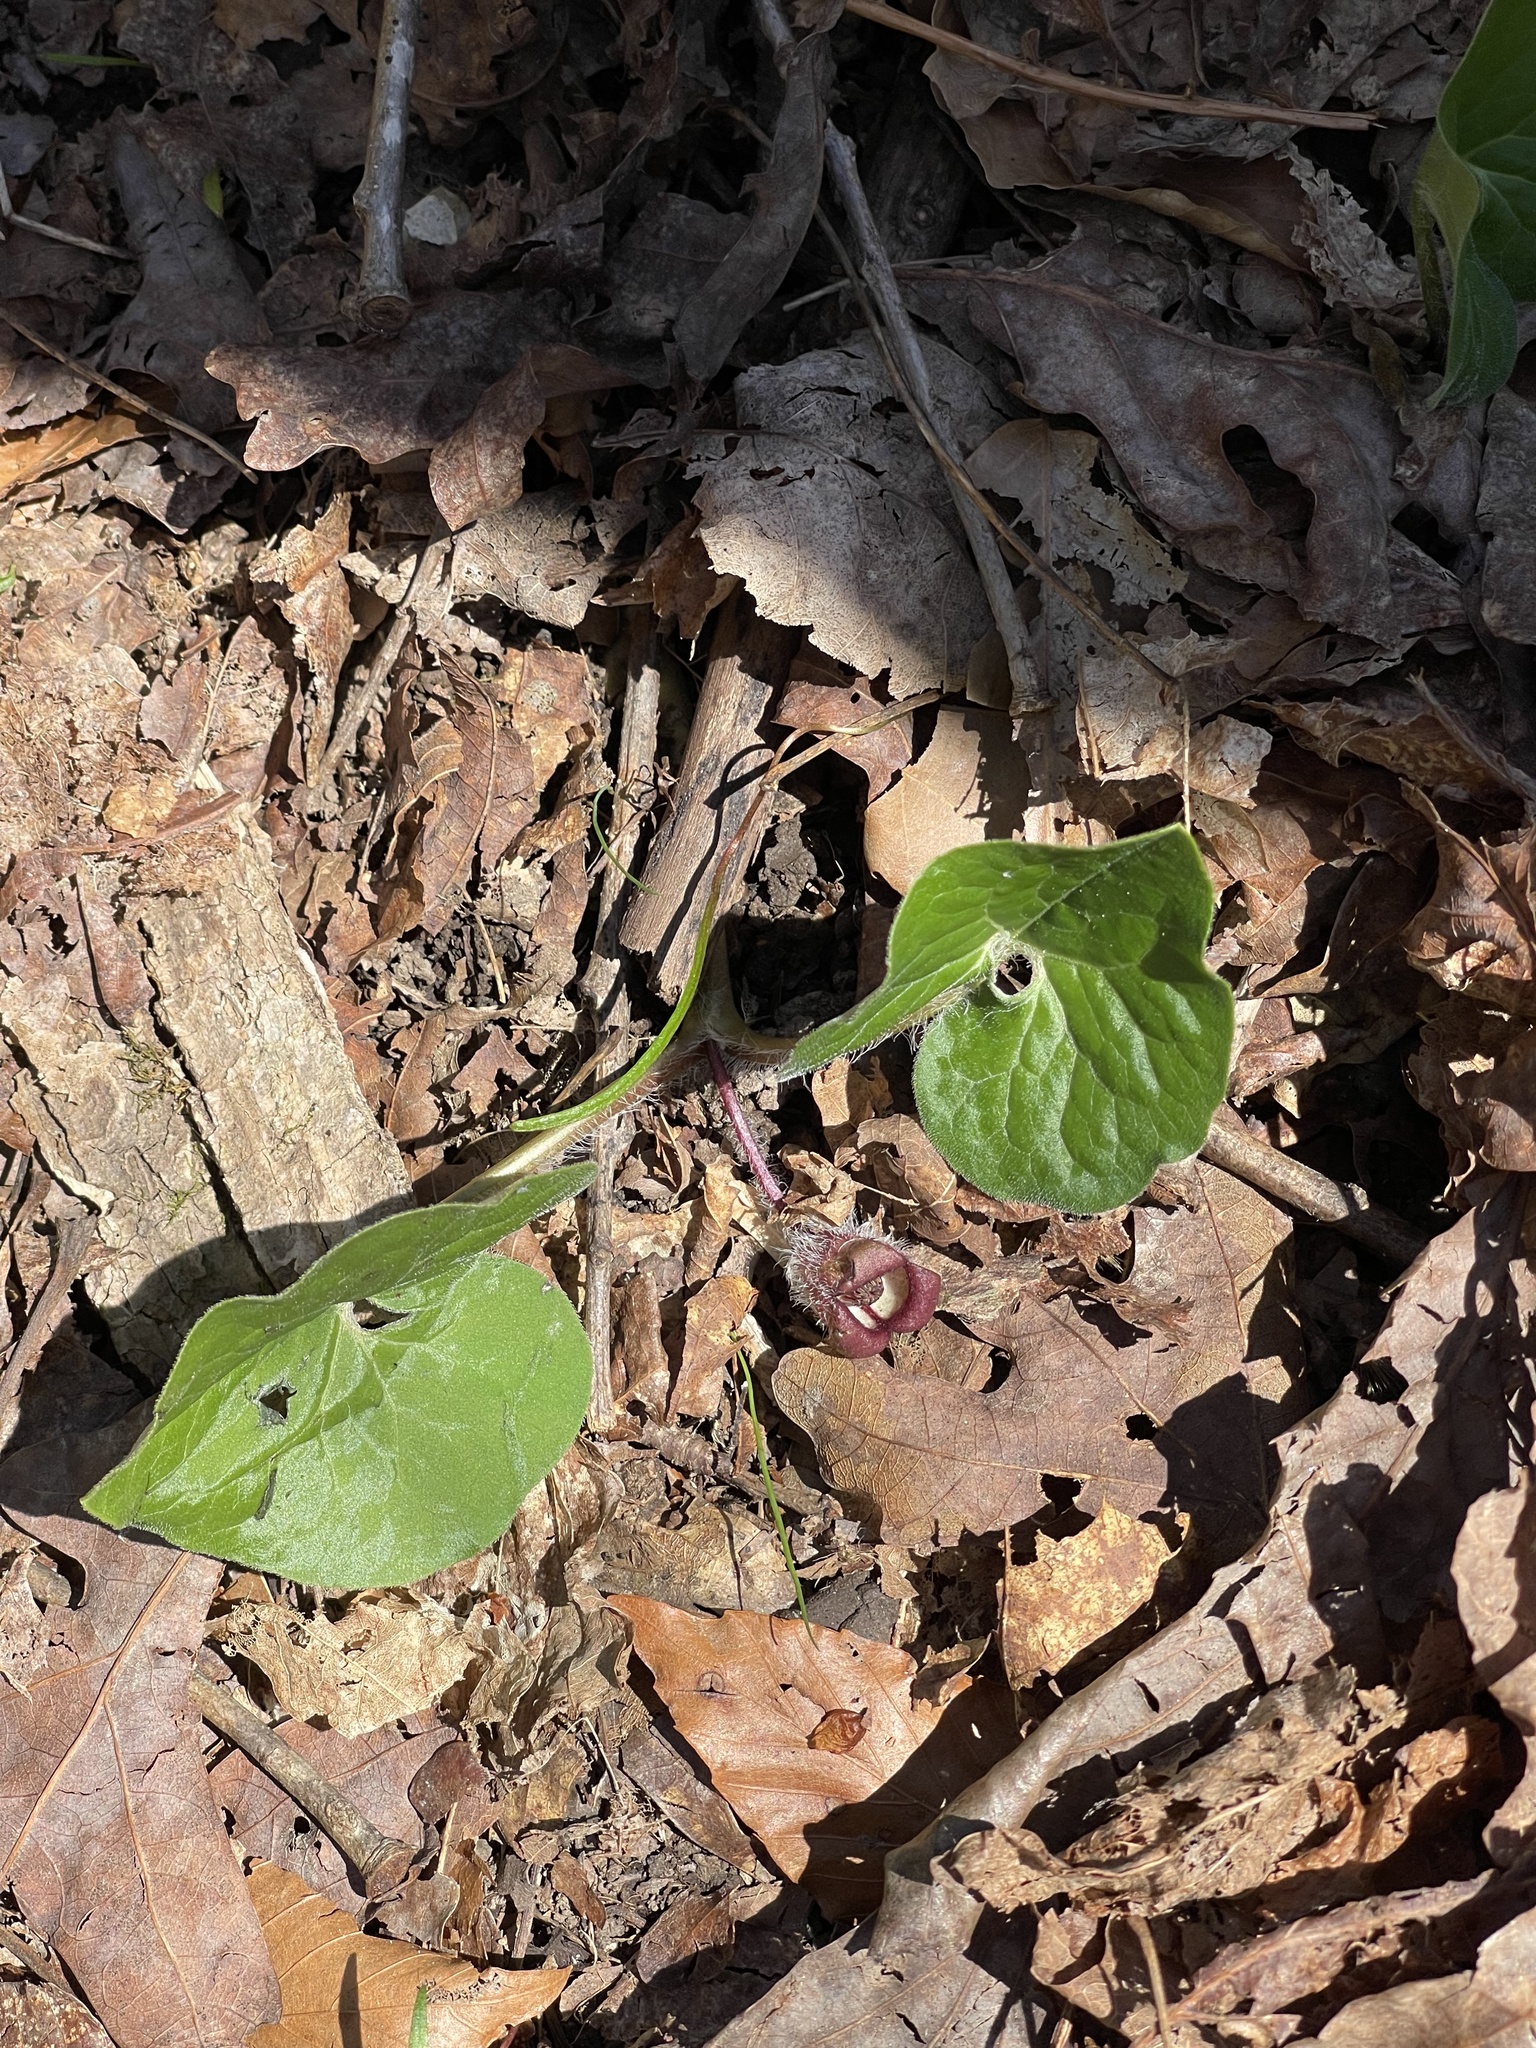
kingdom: Plantae
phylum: Tracheophyta
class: Magnoliopsida
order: Piperales
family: Aristolochiaceae
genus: Asarum
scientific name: Asarum canadense
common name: Wild ginger
